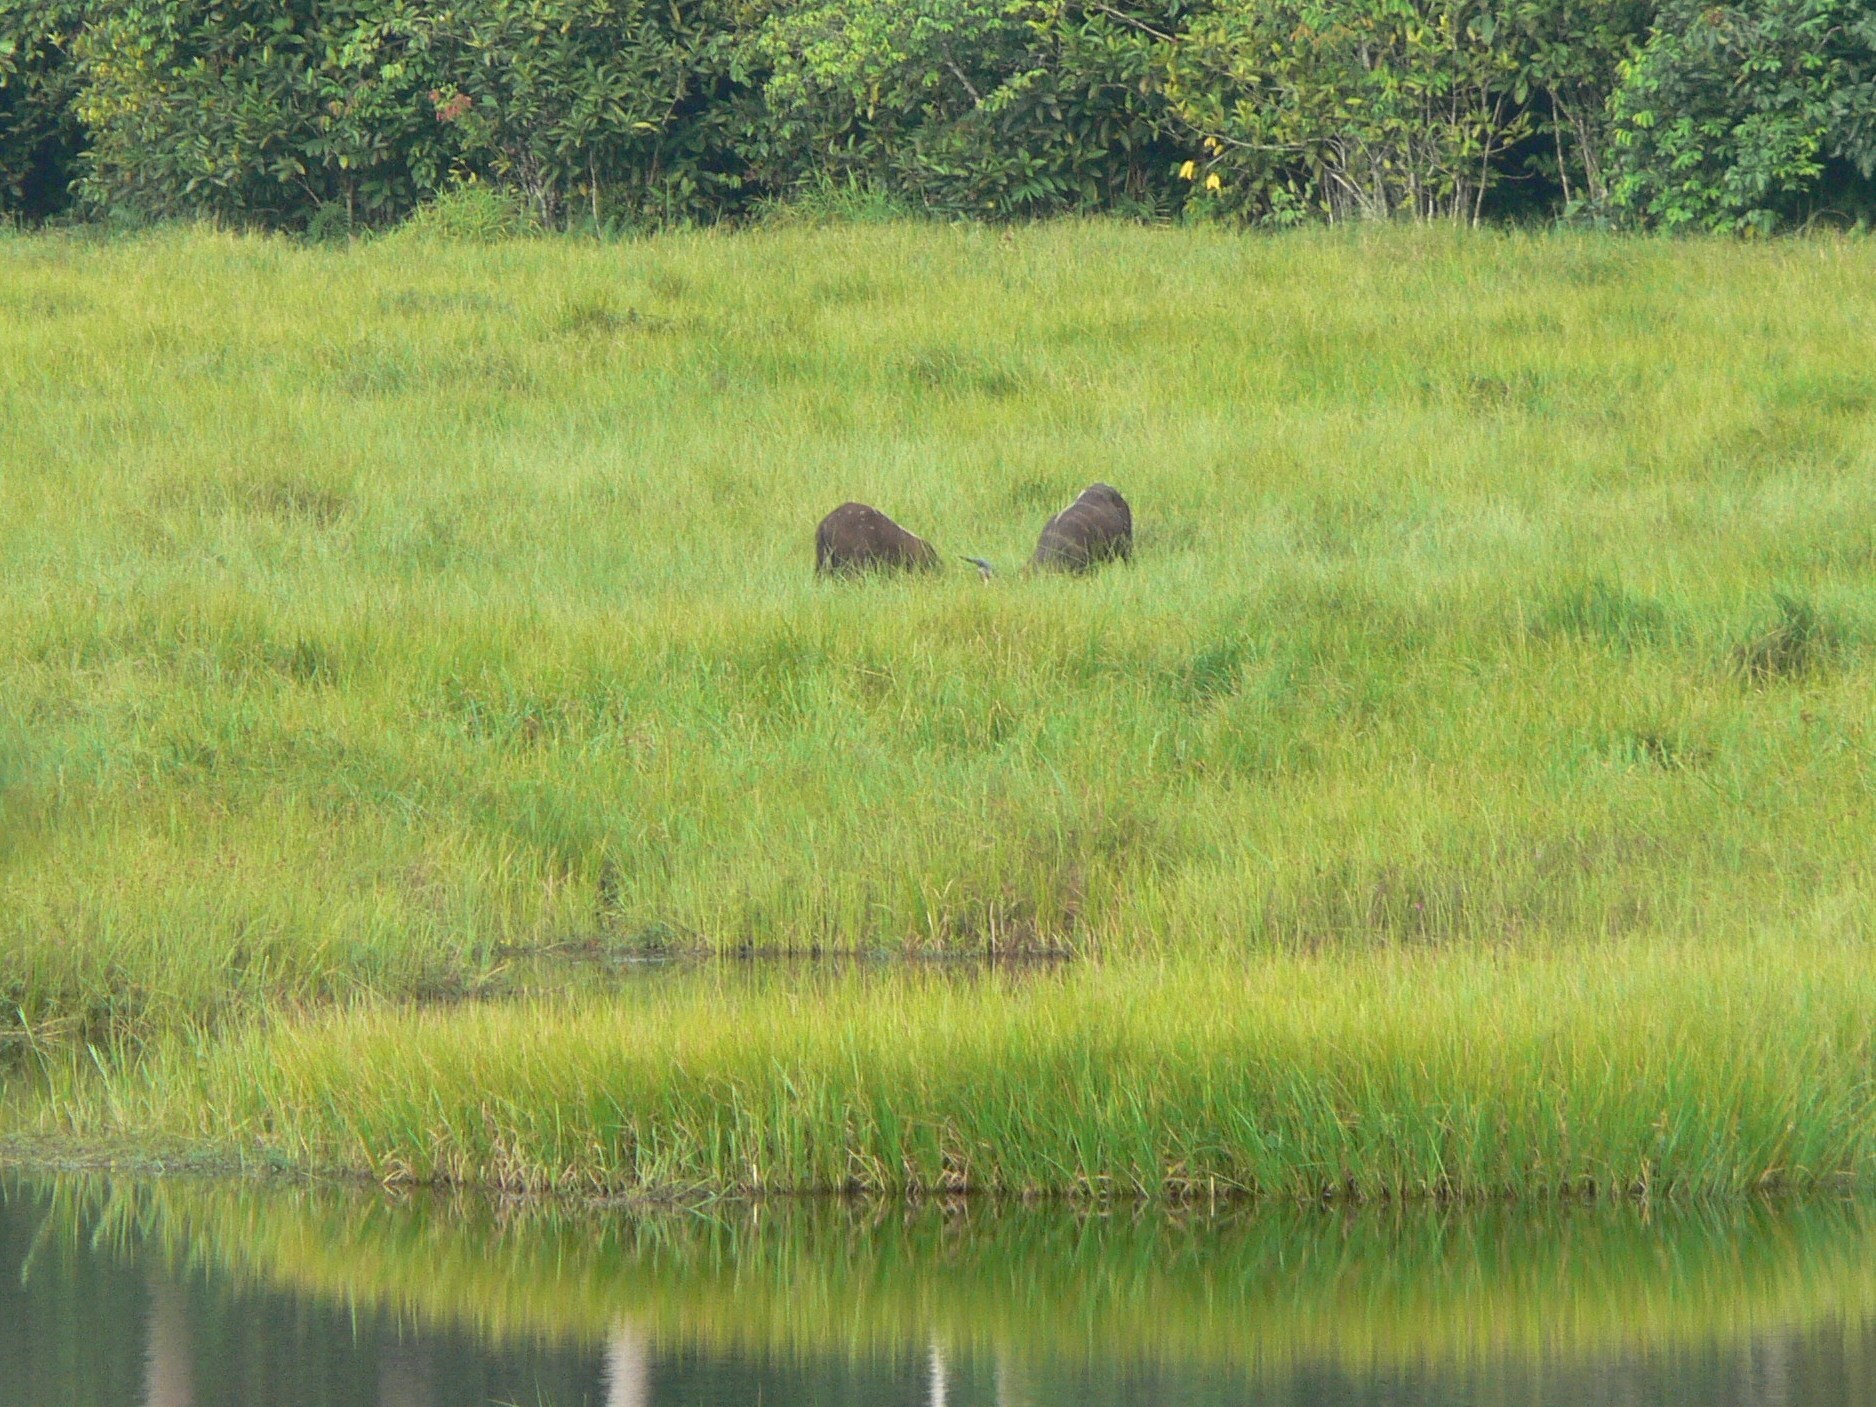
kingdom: Animalia
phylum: Chordata
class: Mammalia
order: Artiodactyla
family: Bovidae
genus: Tragelaphus
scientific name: Tragelaphus spekii
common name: Sitatunga
